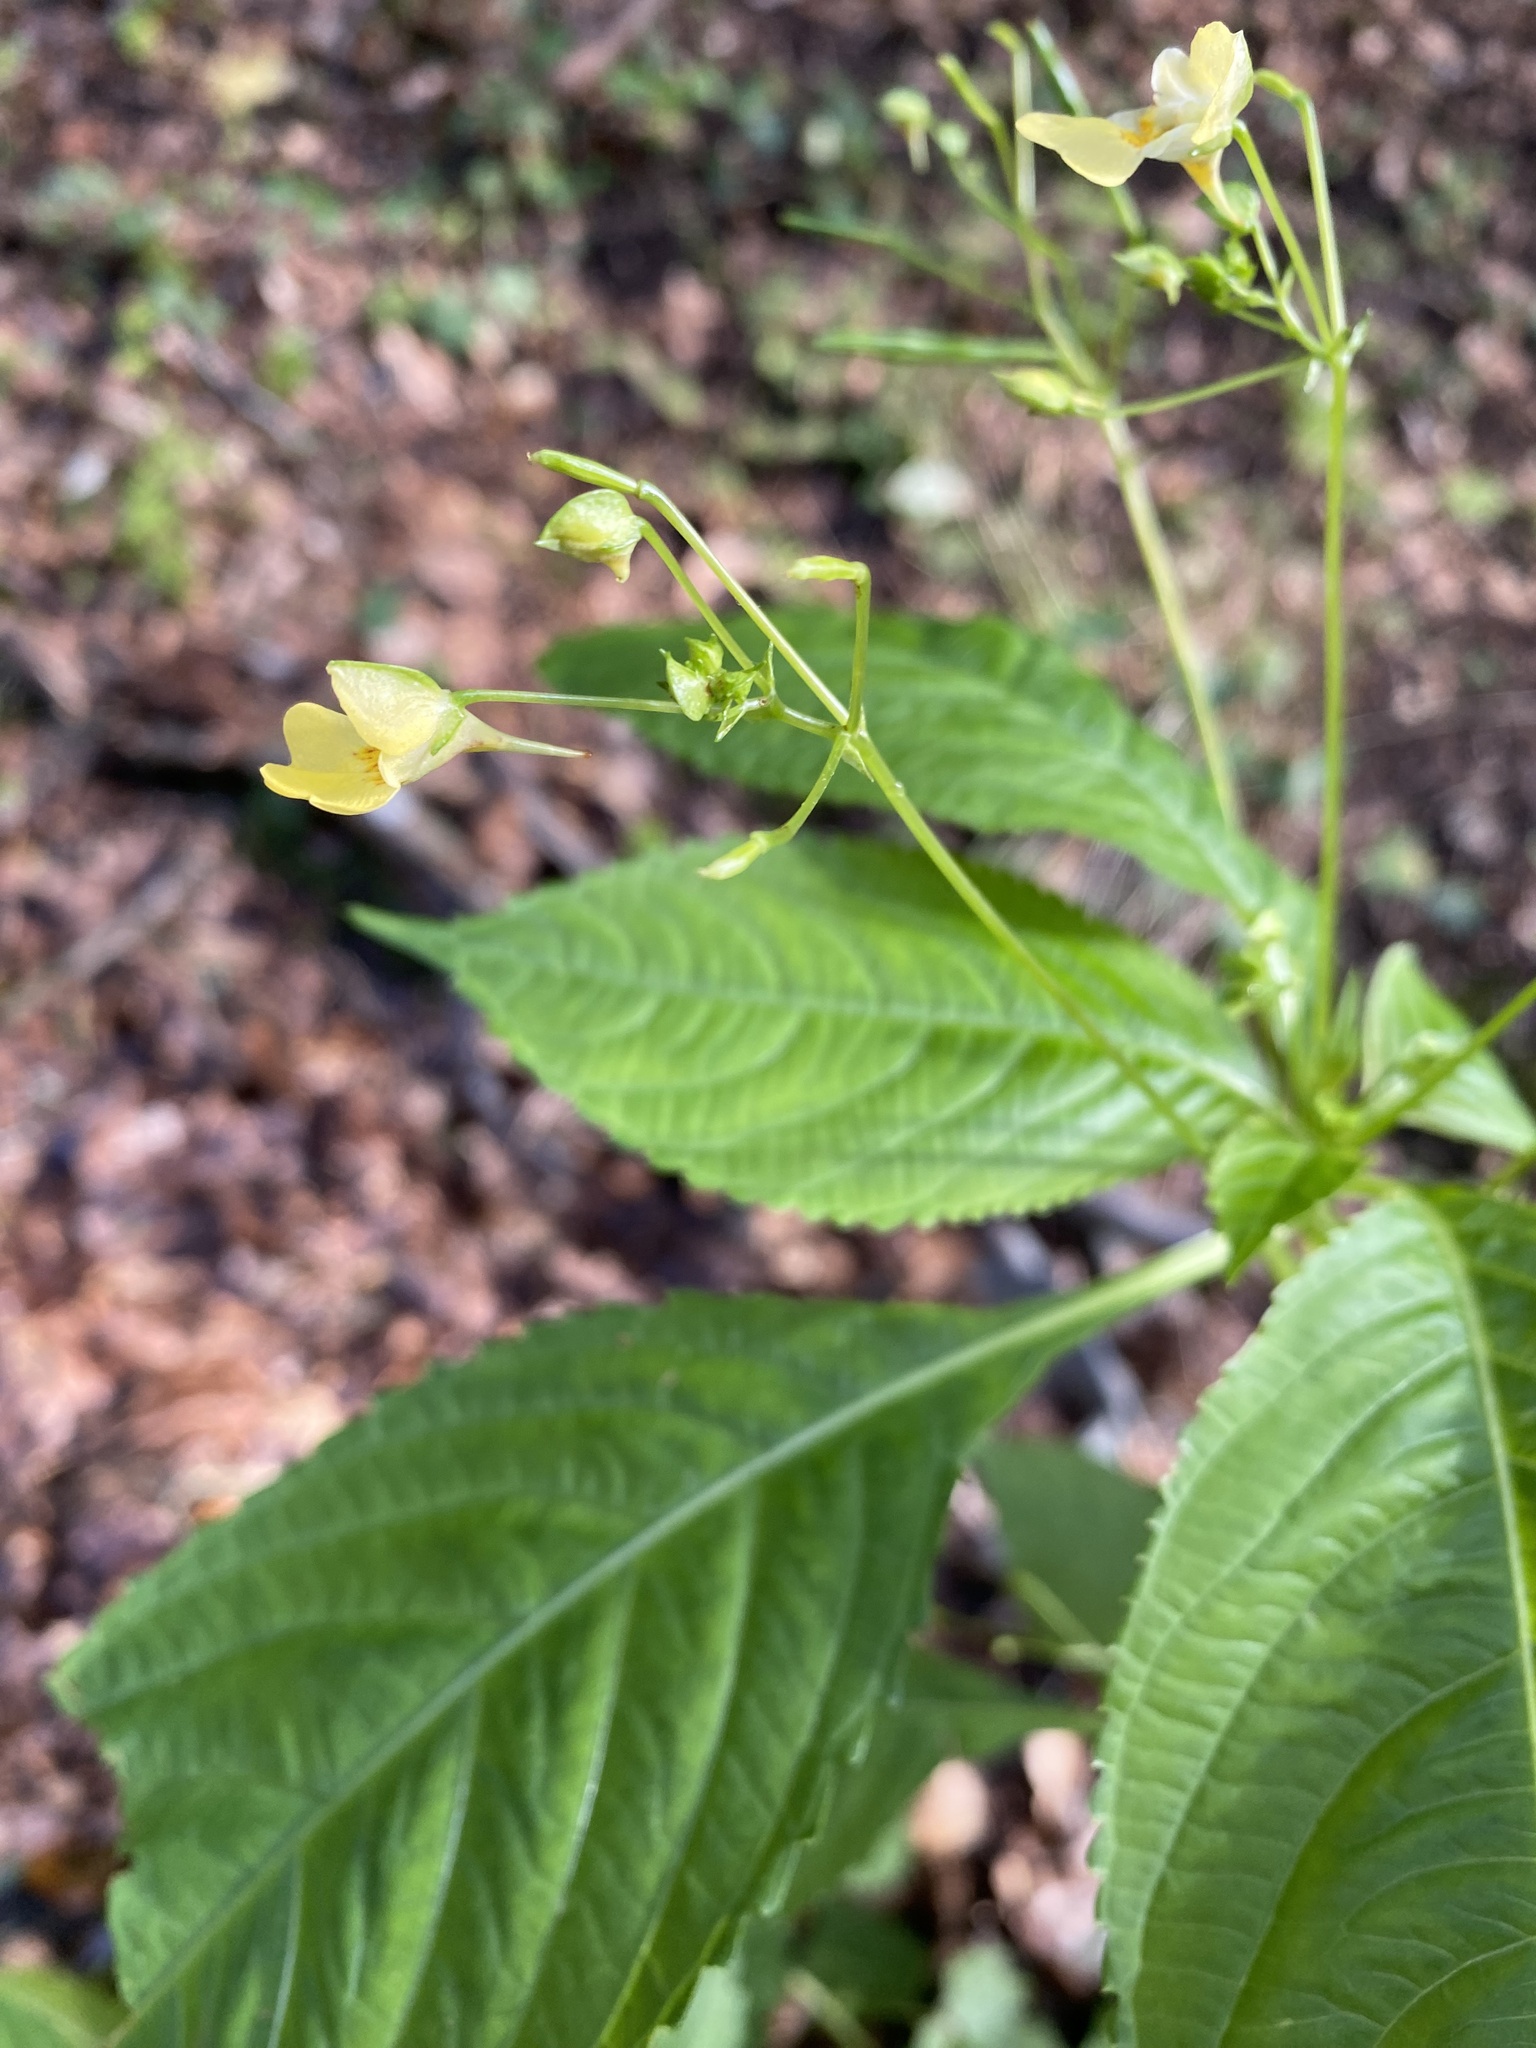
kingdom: Plantae
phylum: Tracheophyta
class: Magnoliopsida
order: Ericales
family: Balsaminaceae
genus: Impatiens
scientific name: Impatiens parviflora
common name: Small balsam
